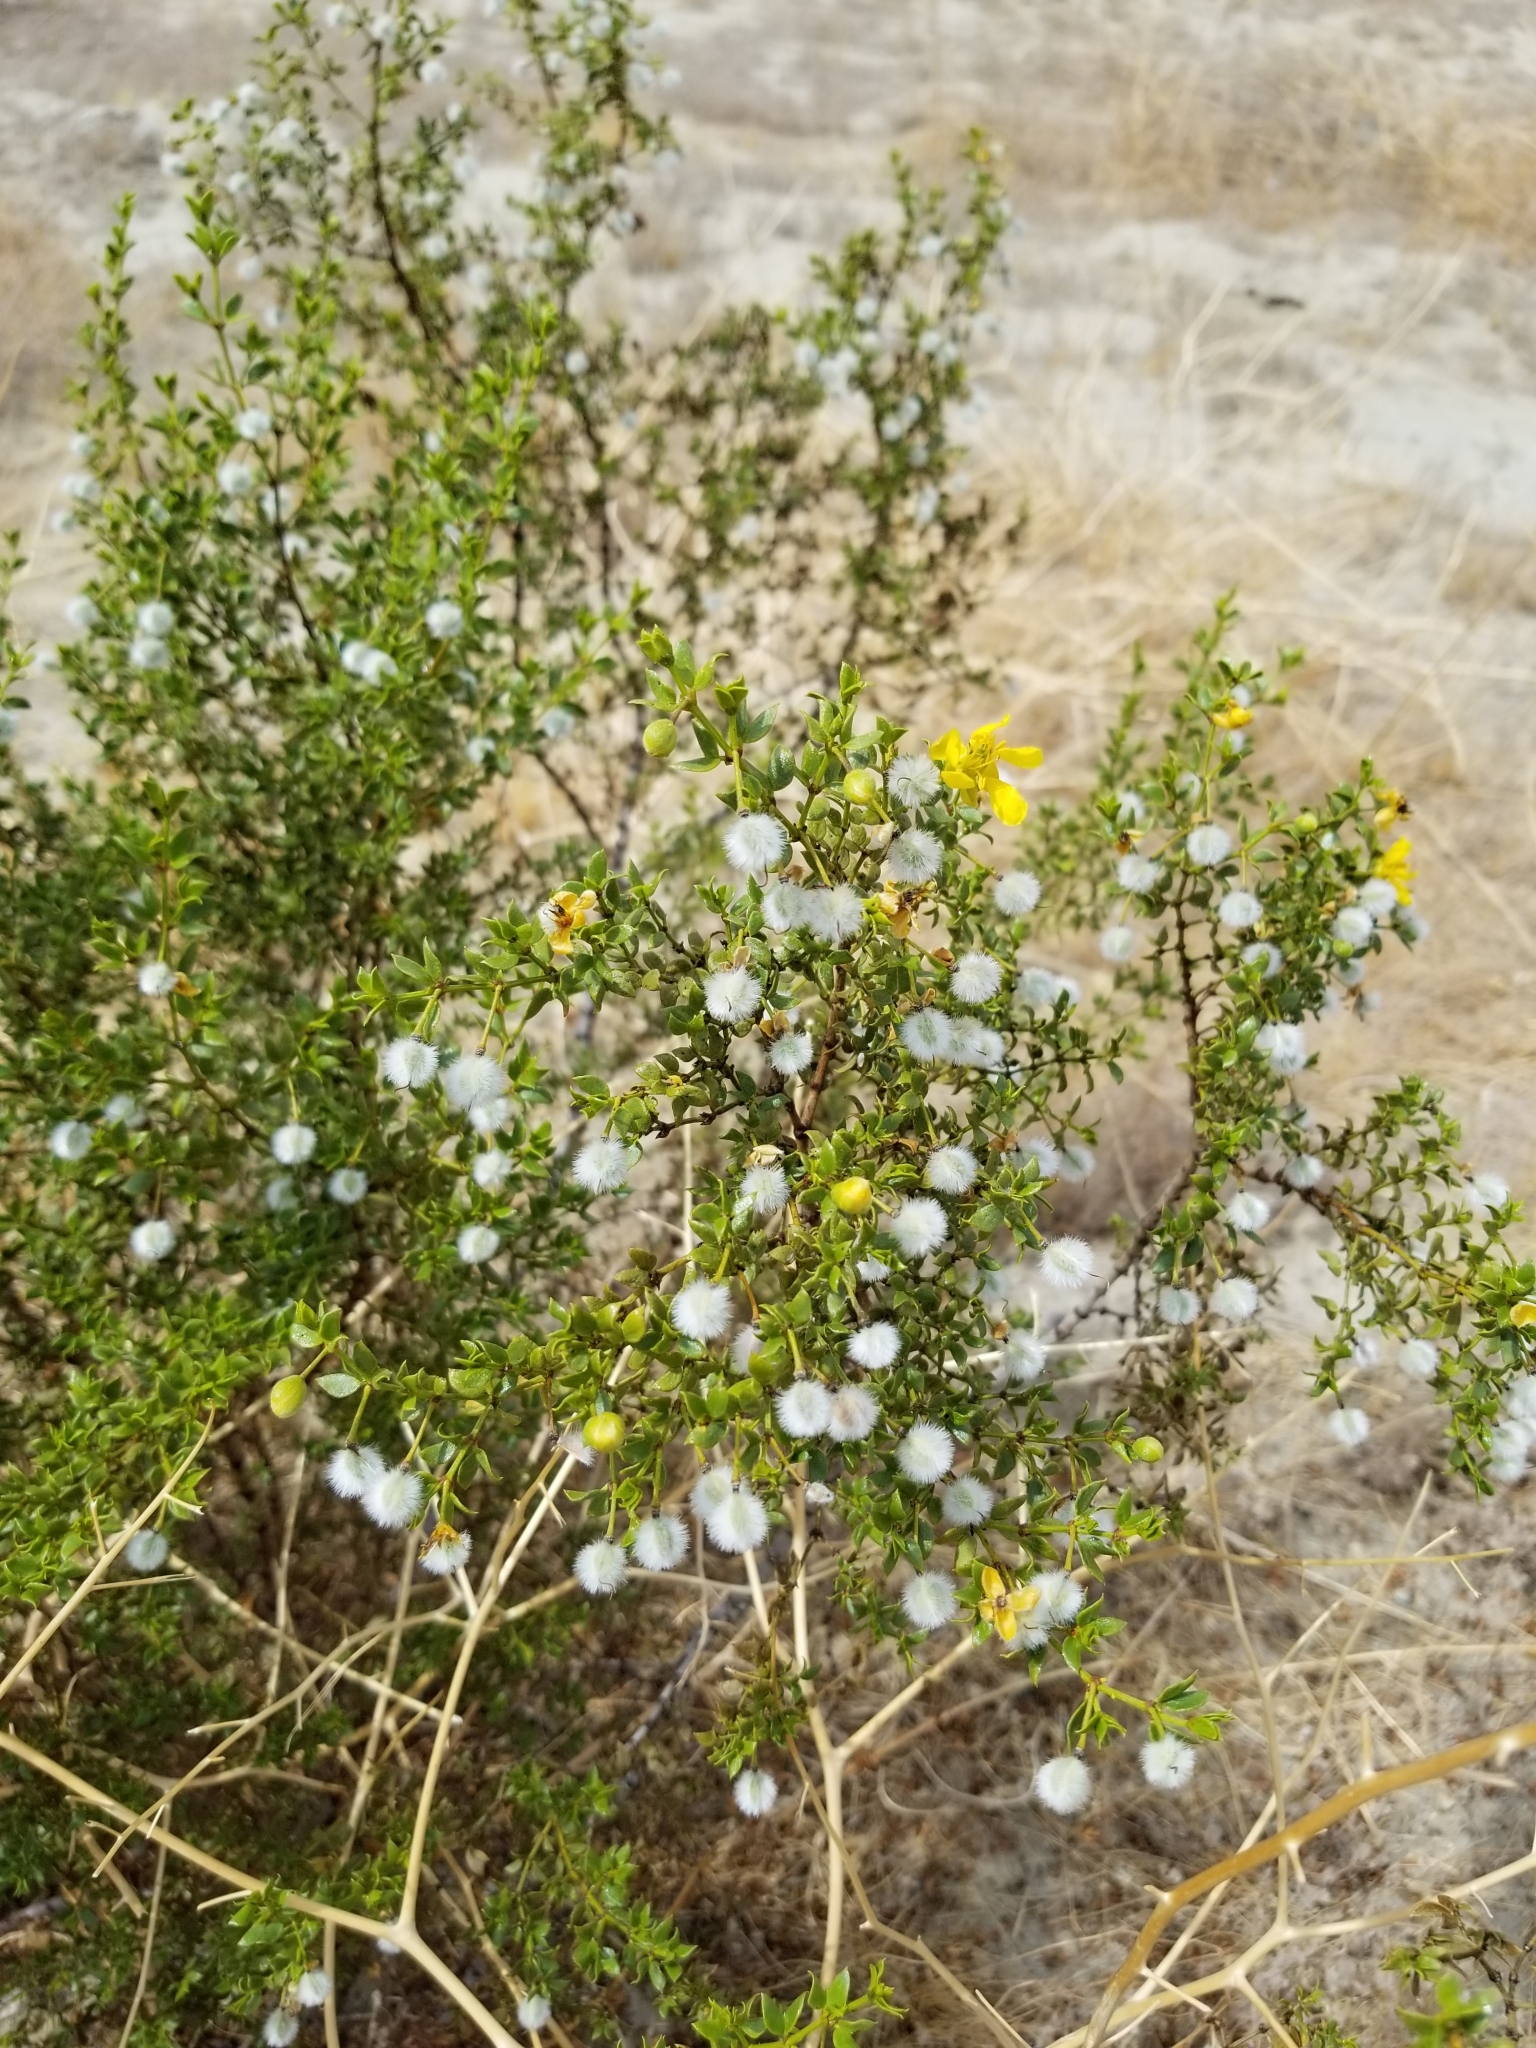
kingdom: Plantae
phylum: Tracheophyta
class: Magnoliopsida
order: Zygophyllales
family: Zygophyllaceae
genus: Larrea
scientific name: Larrea tridentata
